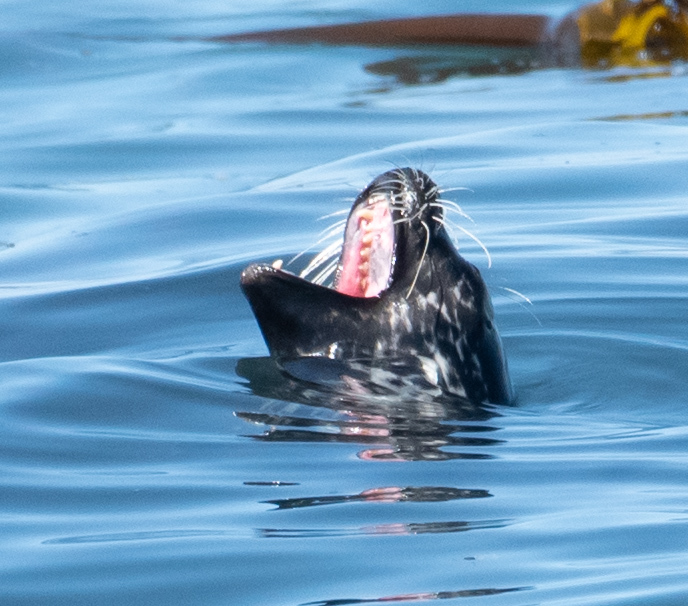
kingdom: Animalia
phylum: Chordata
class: Mammalia
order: Carnivora
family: Phocidae
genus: Phoca
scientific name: Phoca vitulina
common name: Harbor seal
